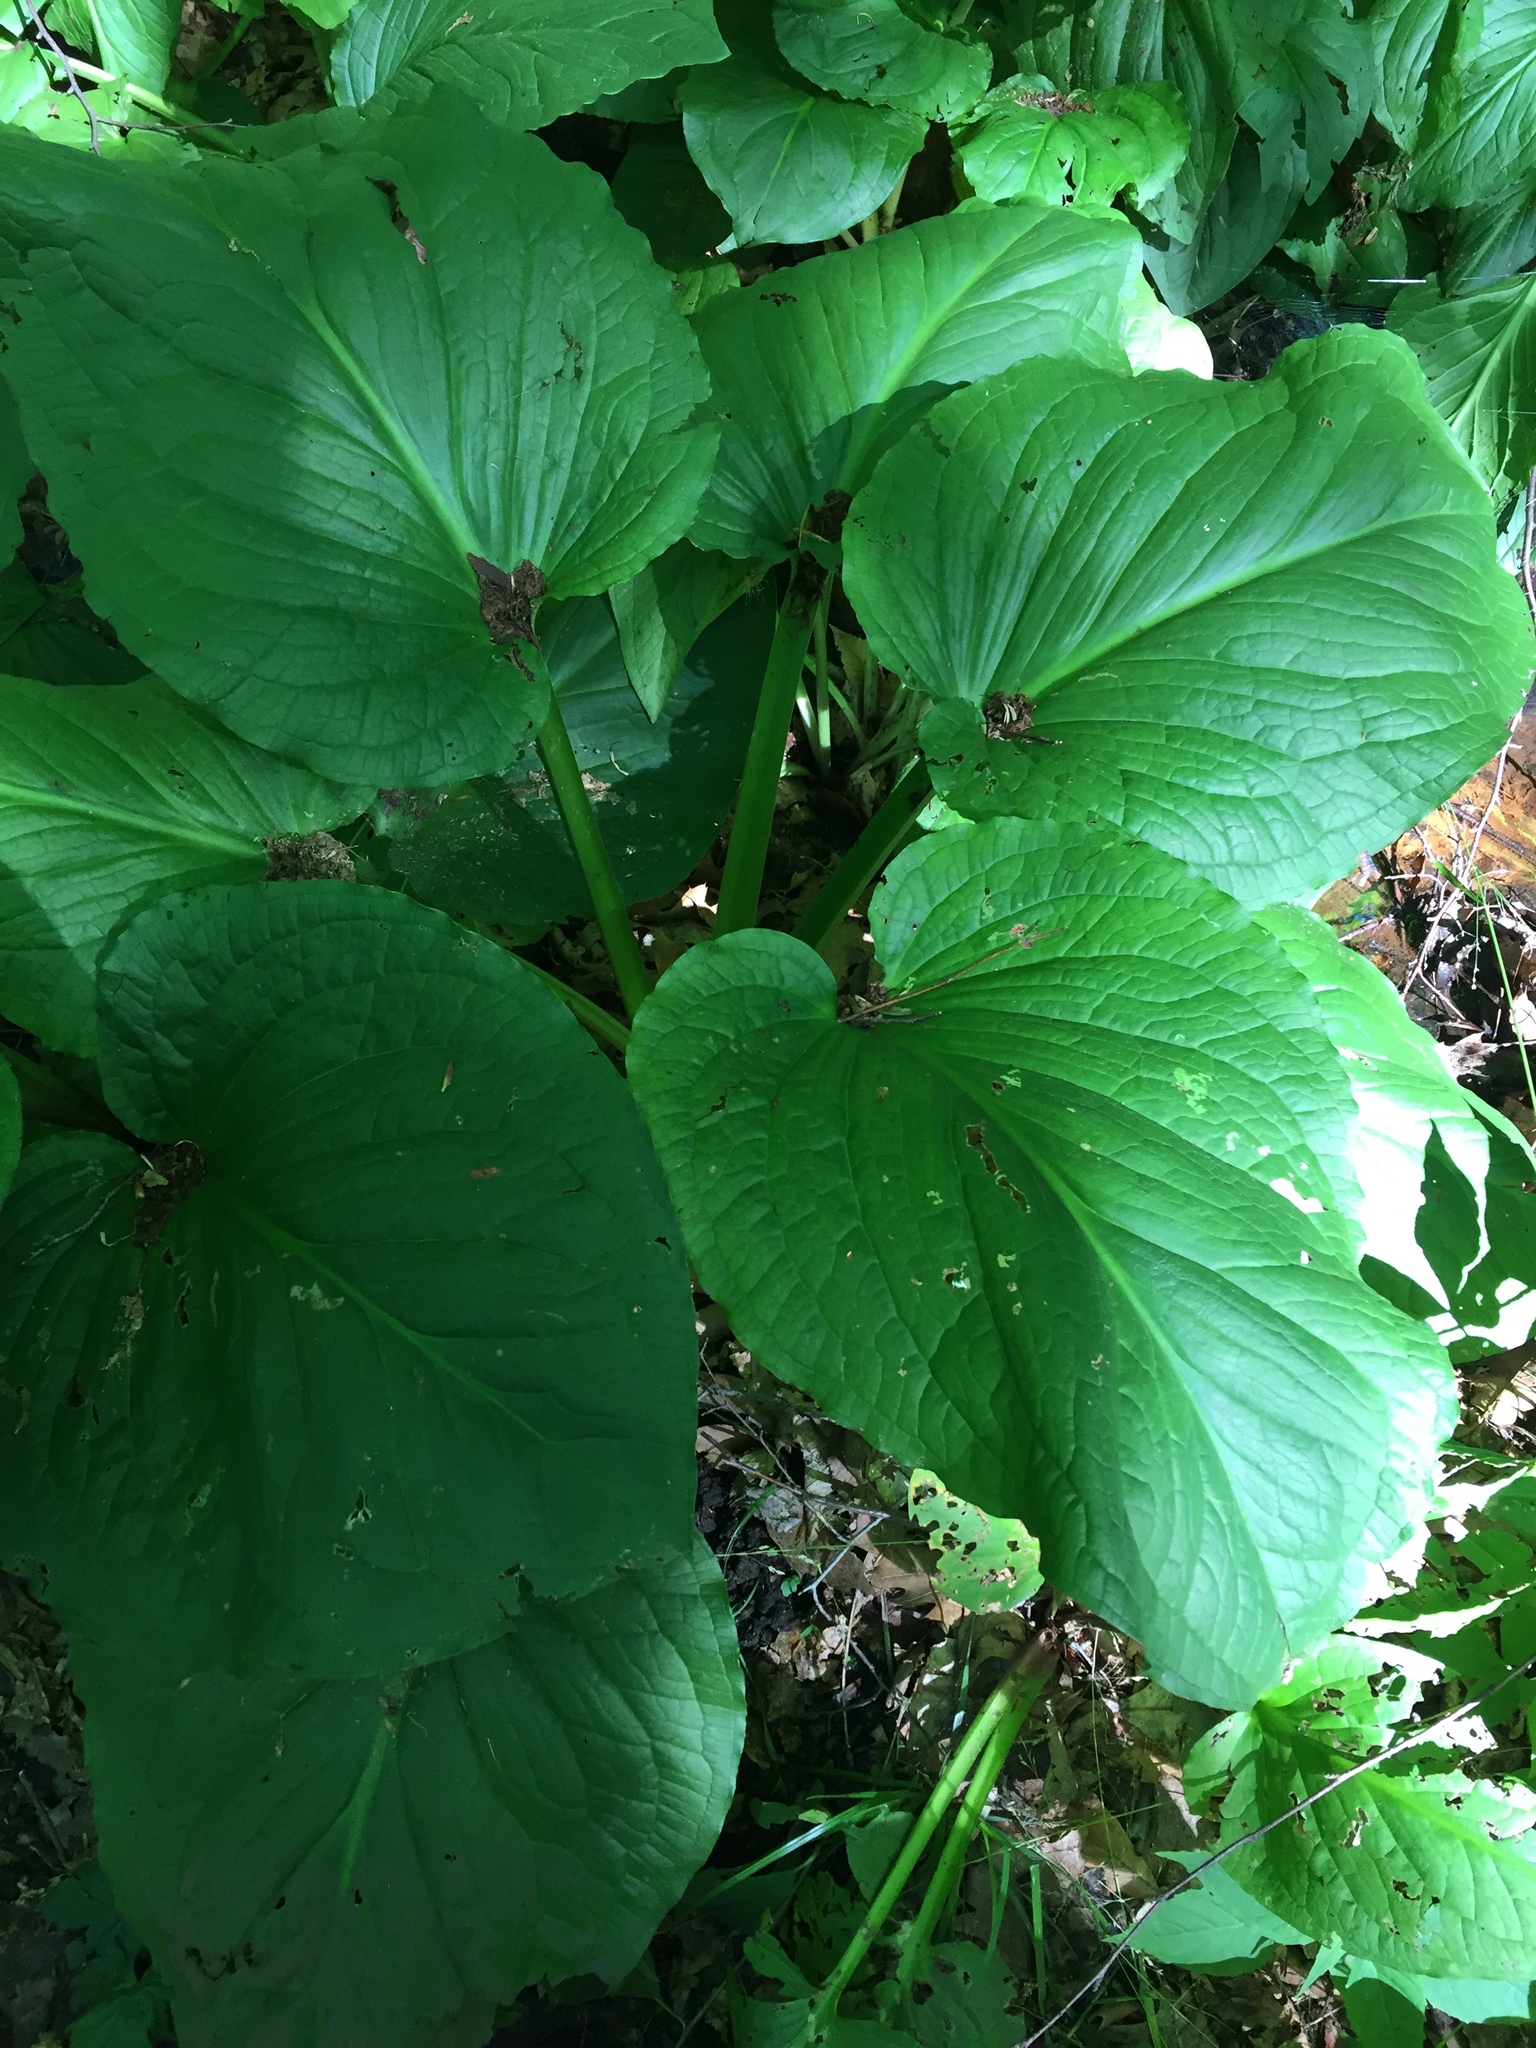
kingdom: Plantae
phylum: Tracheophyta
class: Liliopsida
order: Alismatales
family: Araceae
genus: Symplocarpus
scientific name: Symplocarpus foetidus
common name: Eastern skunk cabbage
